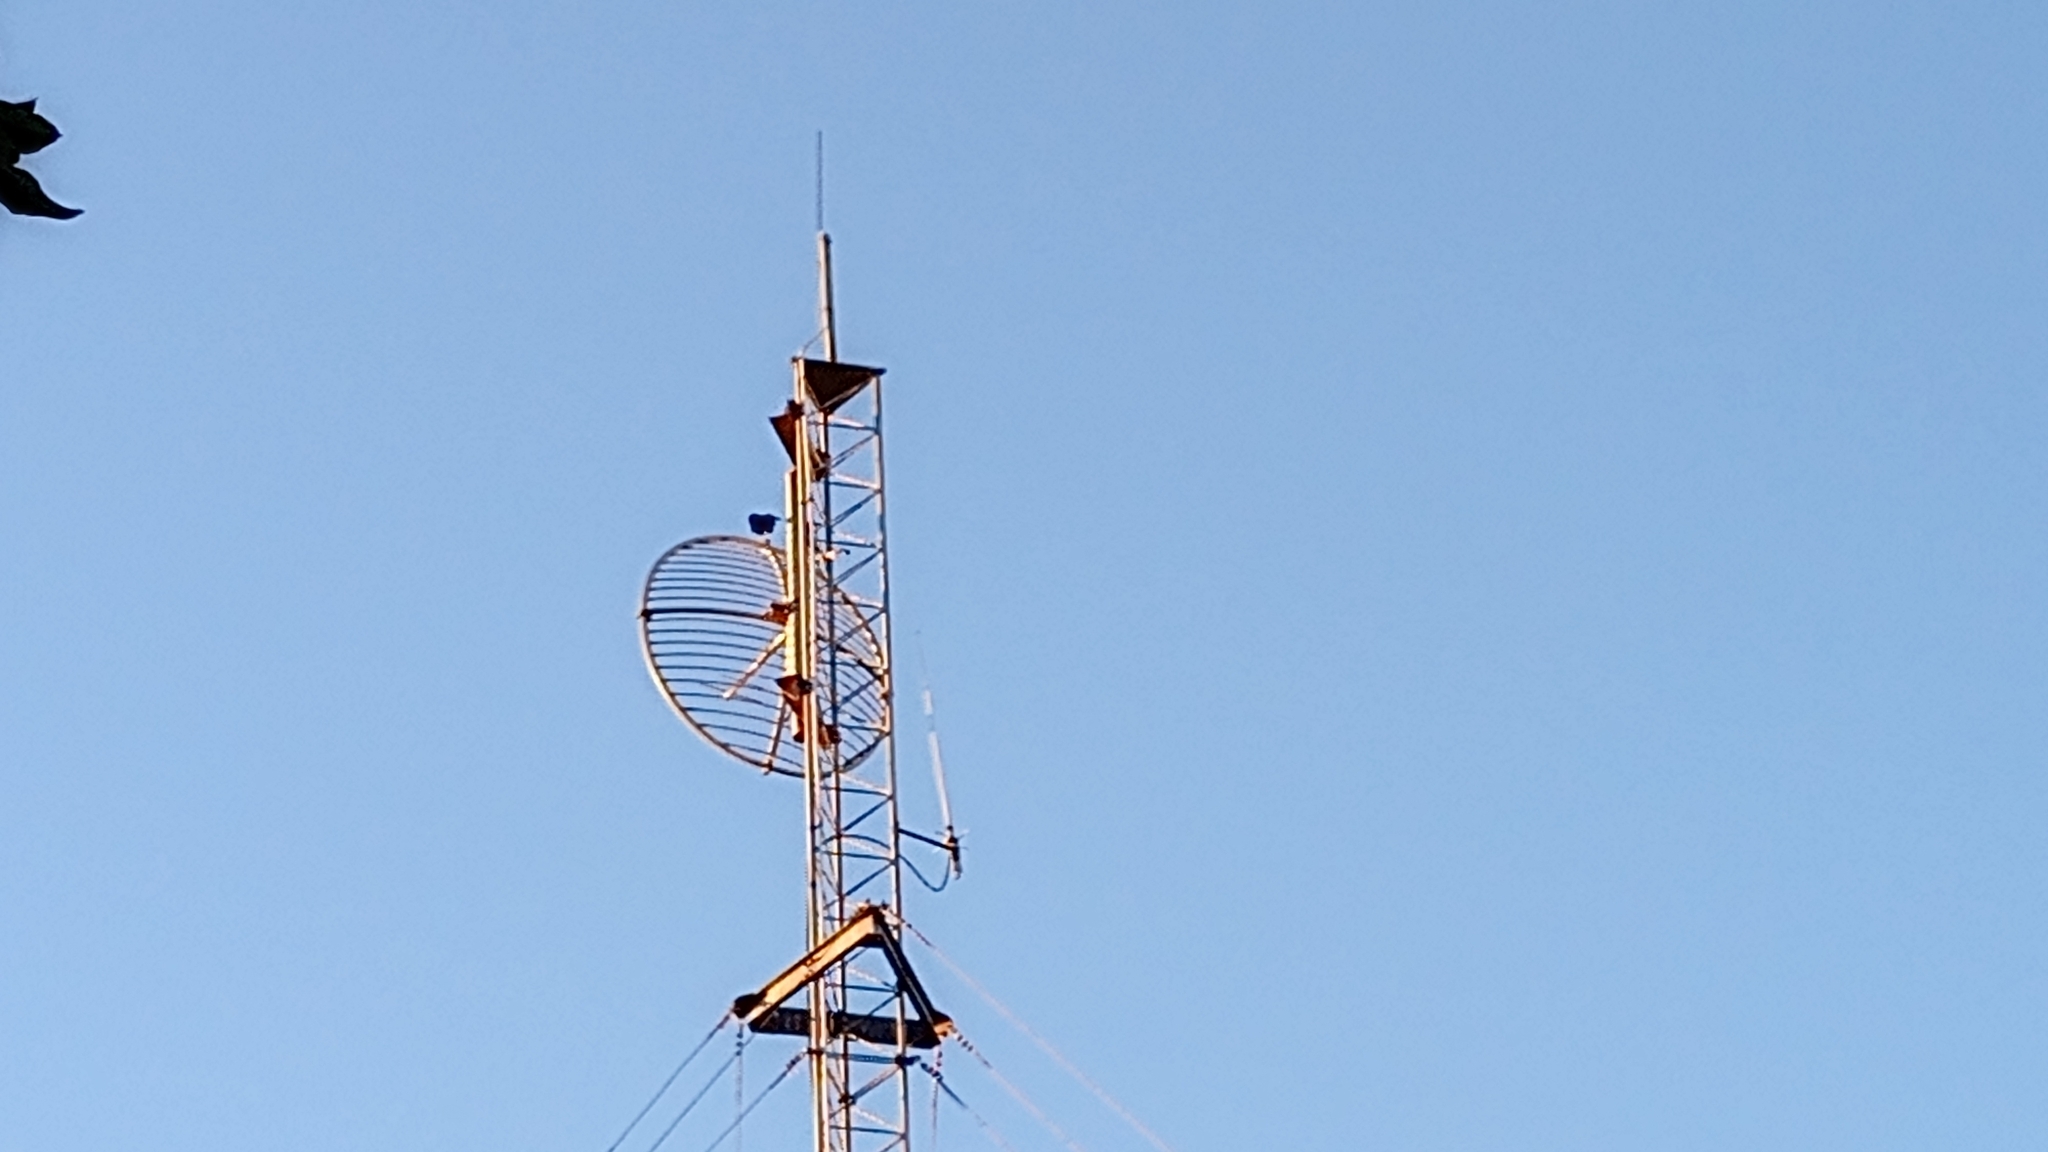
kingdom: Animalia
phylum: Chordata
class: Aves
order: Passeriformes
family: Corvidae
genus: Corvus
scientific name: Corvus corax
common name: Common raven
